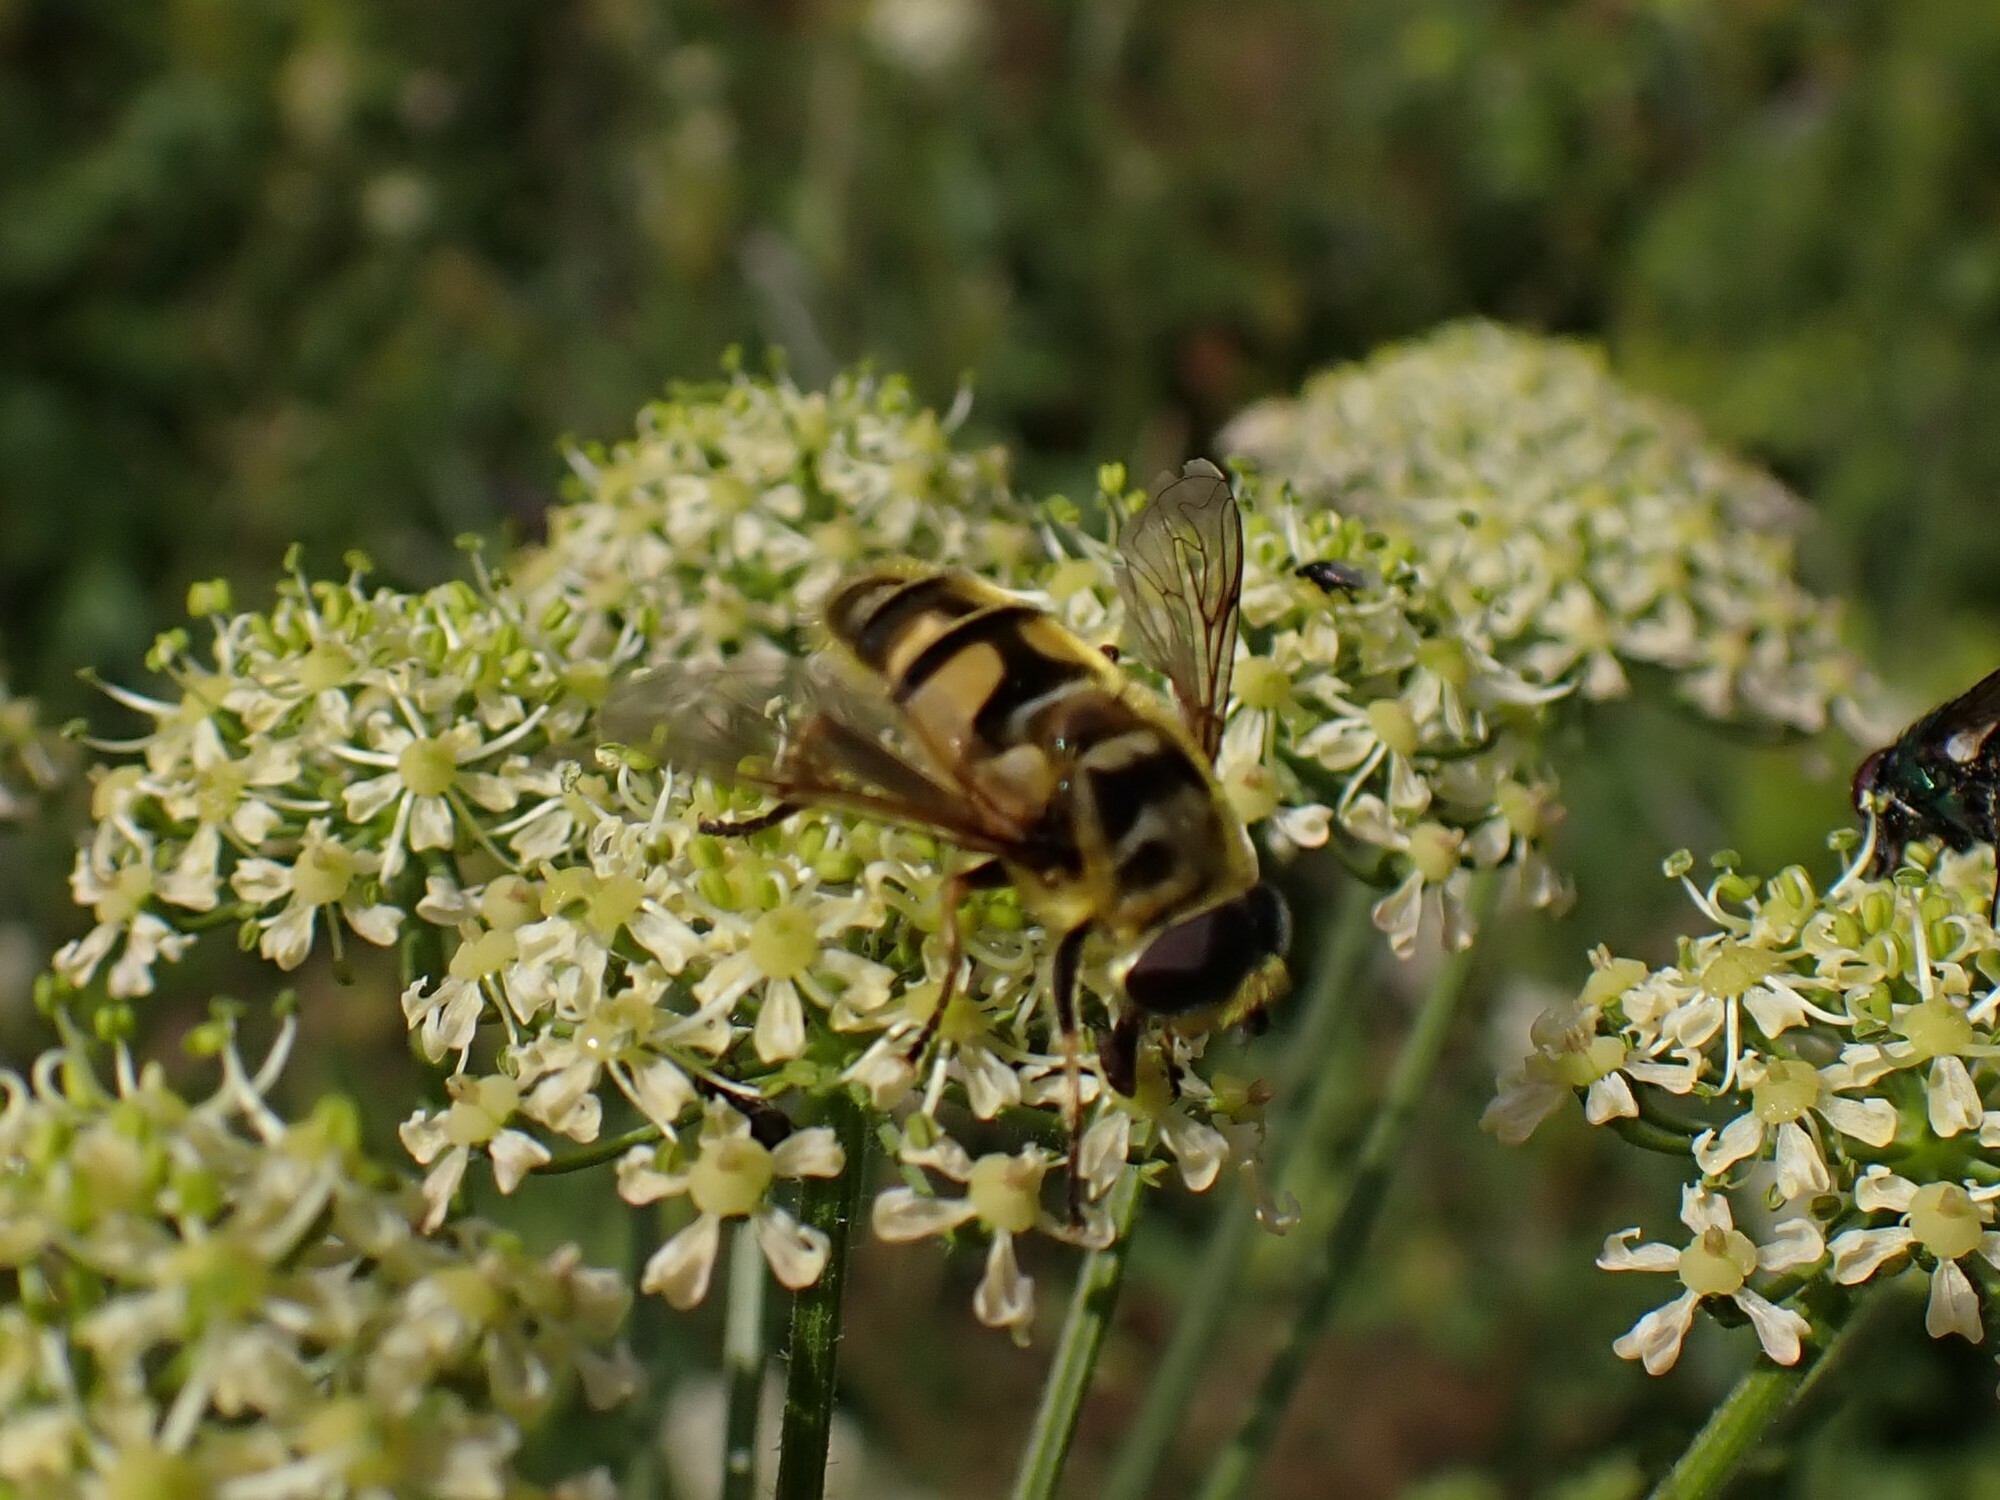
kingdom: Animalia
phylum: Arthropoda
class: Insecta
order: Diptera
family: Syrphidae
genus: Myathropa
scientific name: Myathropa florea
